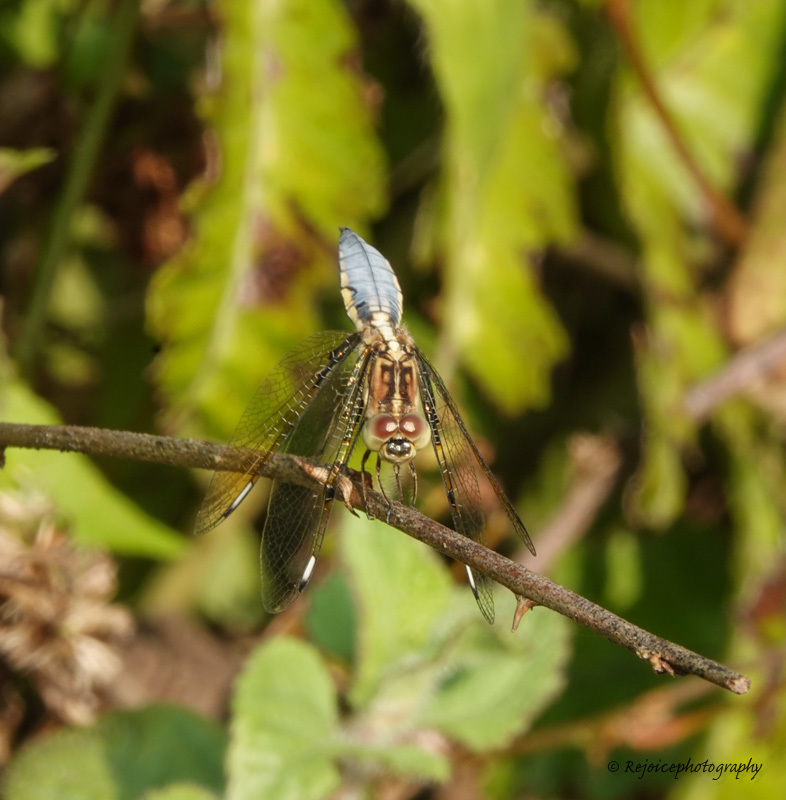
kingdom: Animalia
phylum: Arthropoda
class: Insecta
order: Odonata
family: Libellulidae
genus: Palpopleura
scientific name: Palpopleura sexmaculata
